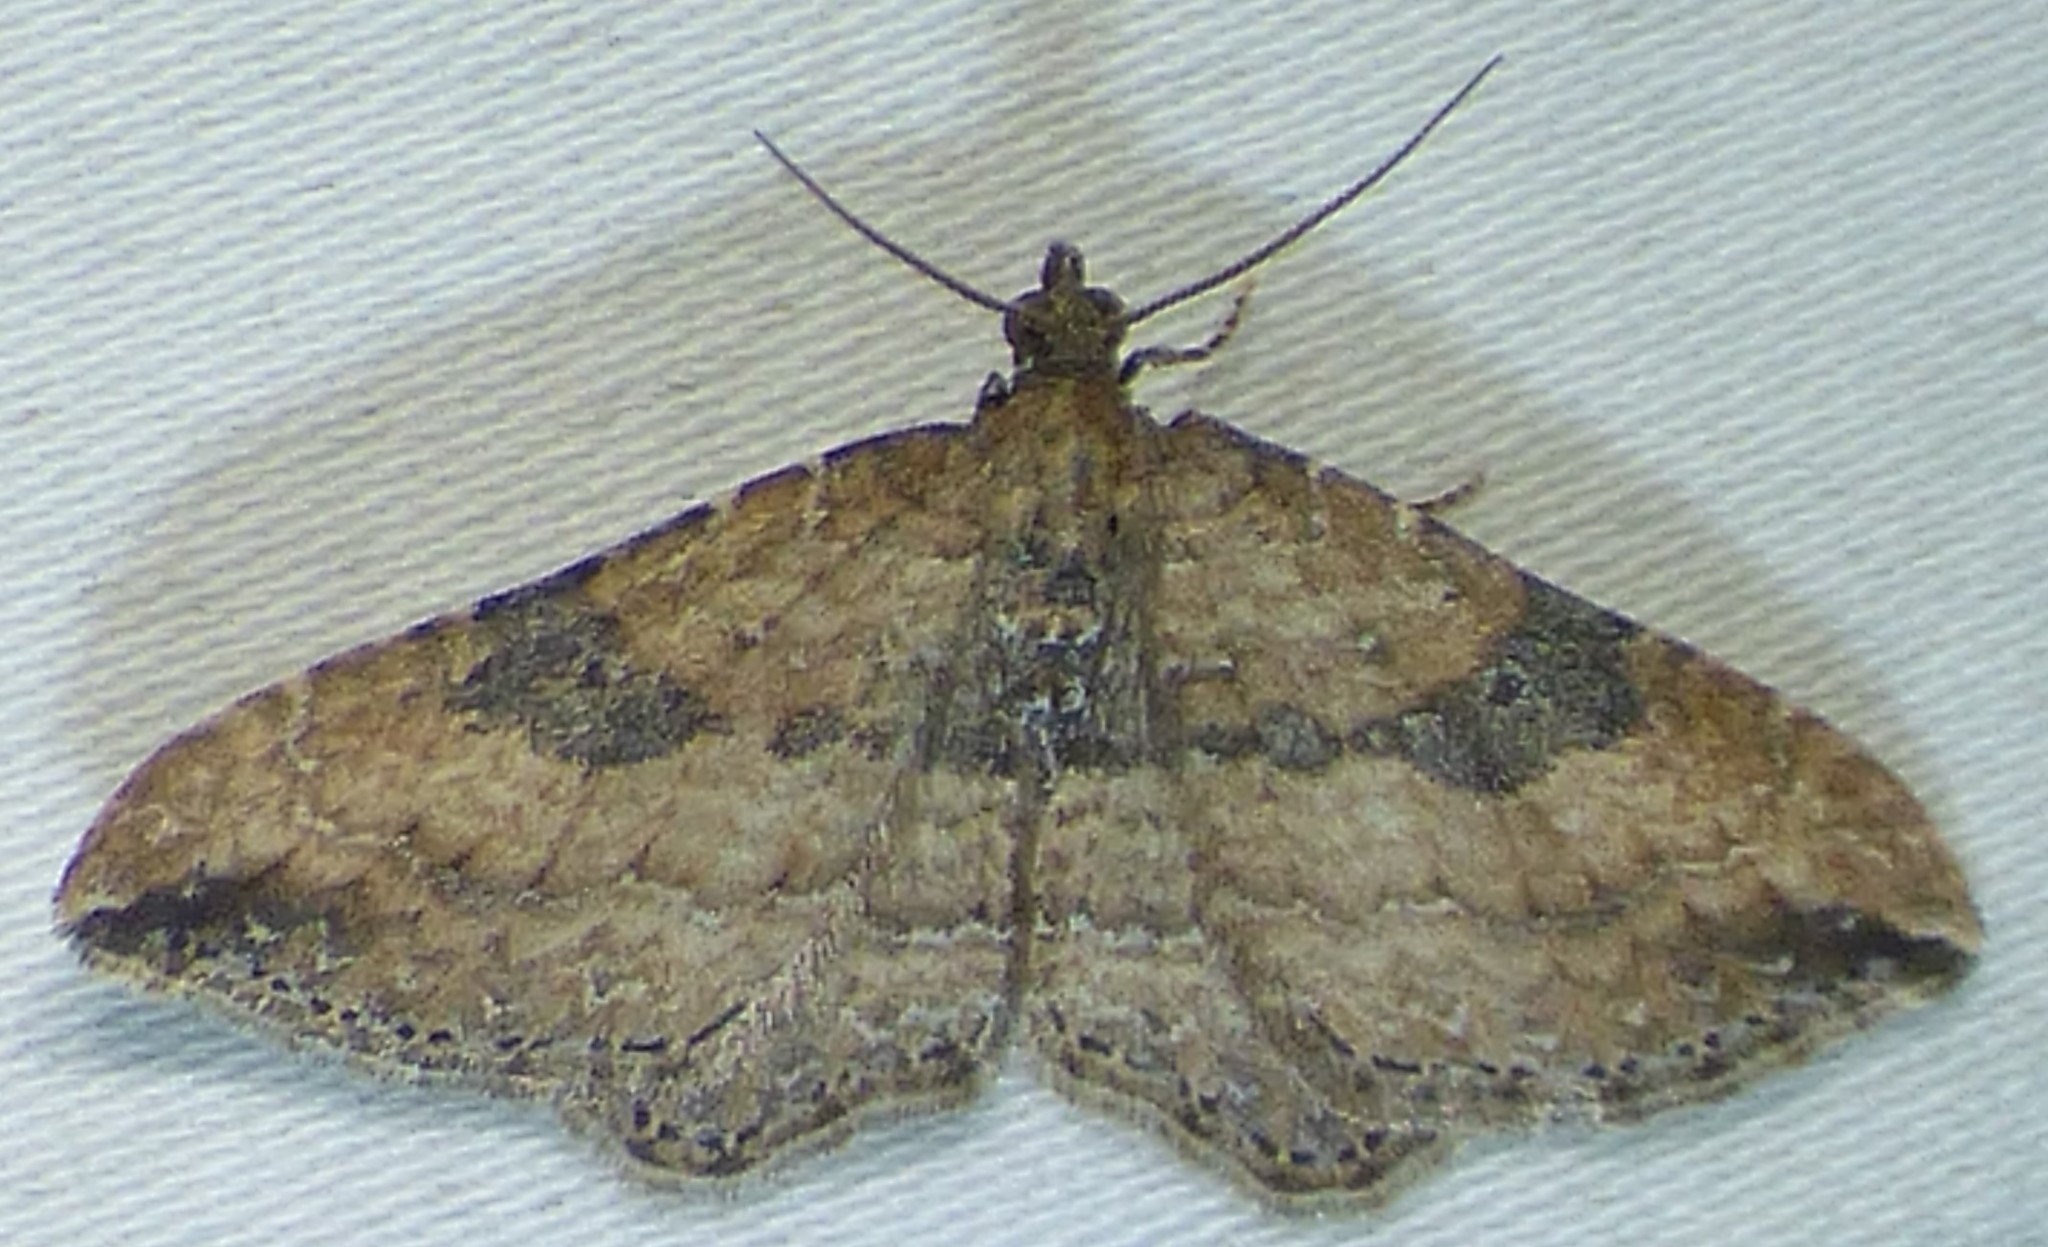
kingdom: Animalia
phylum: Arthropoda
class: Insecta
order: Lepidoptera
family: Geometridae
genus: Orthonama
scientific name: Orthonama obstipata
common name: The gem
